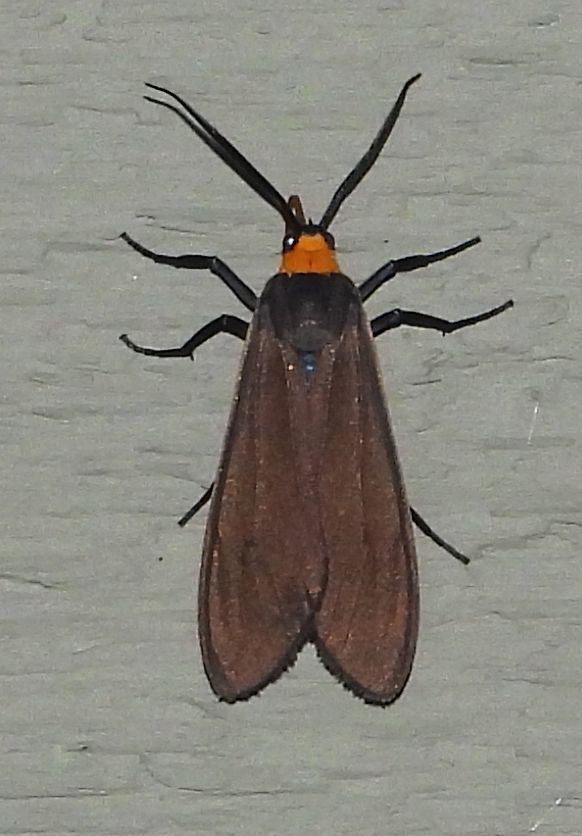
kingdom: Animalia
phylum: Arthropoda
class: Insecta
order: Lepidoptera
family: Erebidae
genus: Cisseps
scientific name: Cisseps fulvicollis
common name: Yellow-collared scape moth
